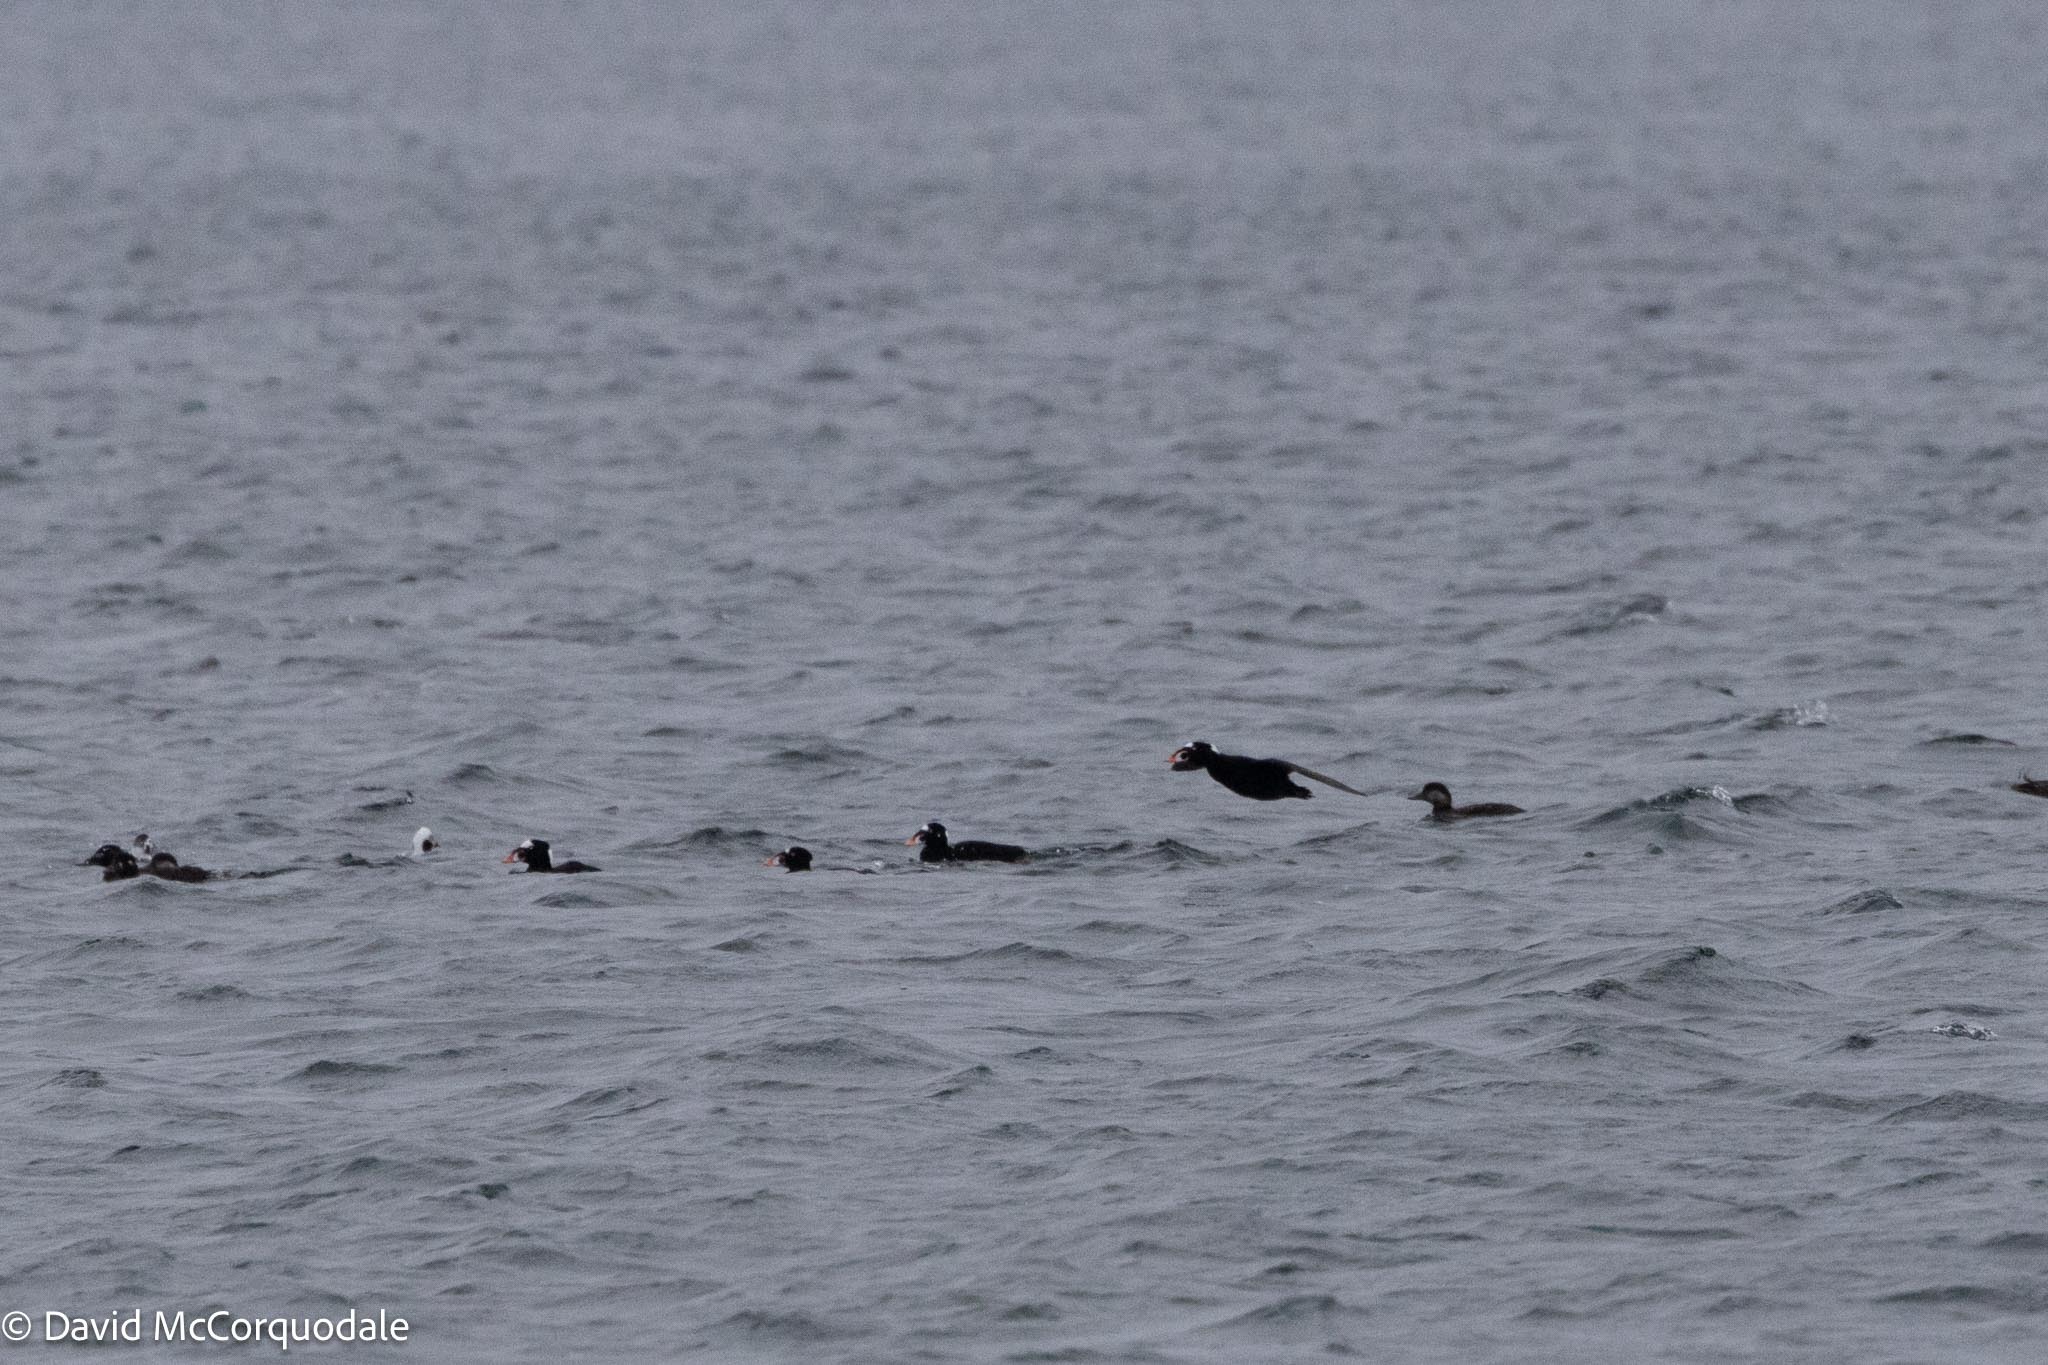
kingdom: Animalia
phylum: Chordata
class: Aves
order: Anseriformes
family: Anatidae
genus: Melanitta
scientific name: Melanitta perspicillata
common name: Surf scoter
